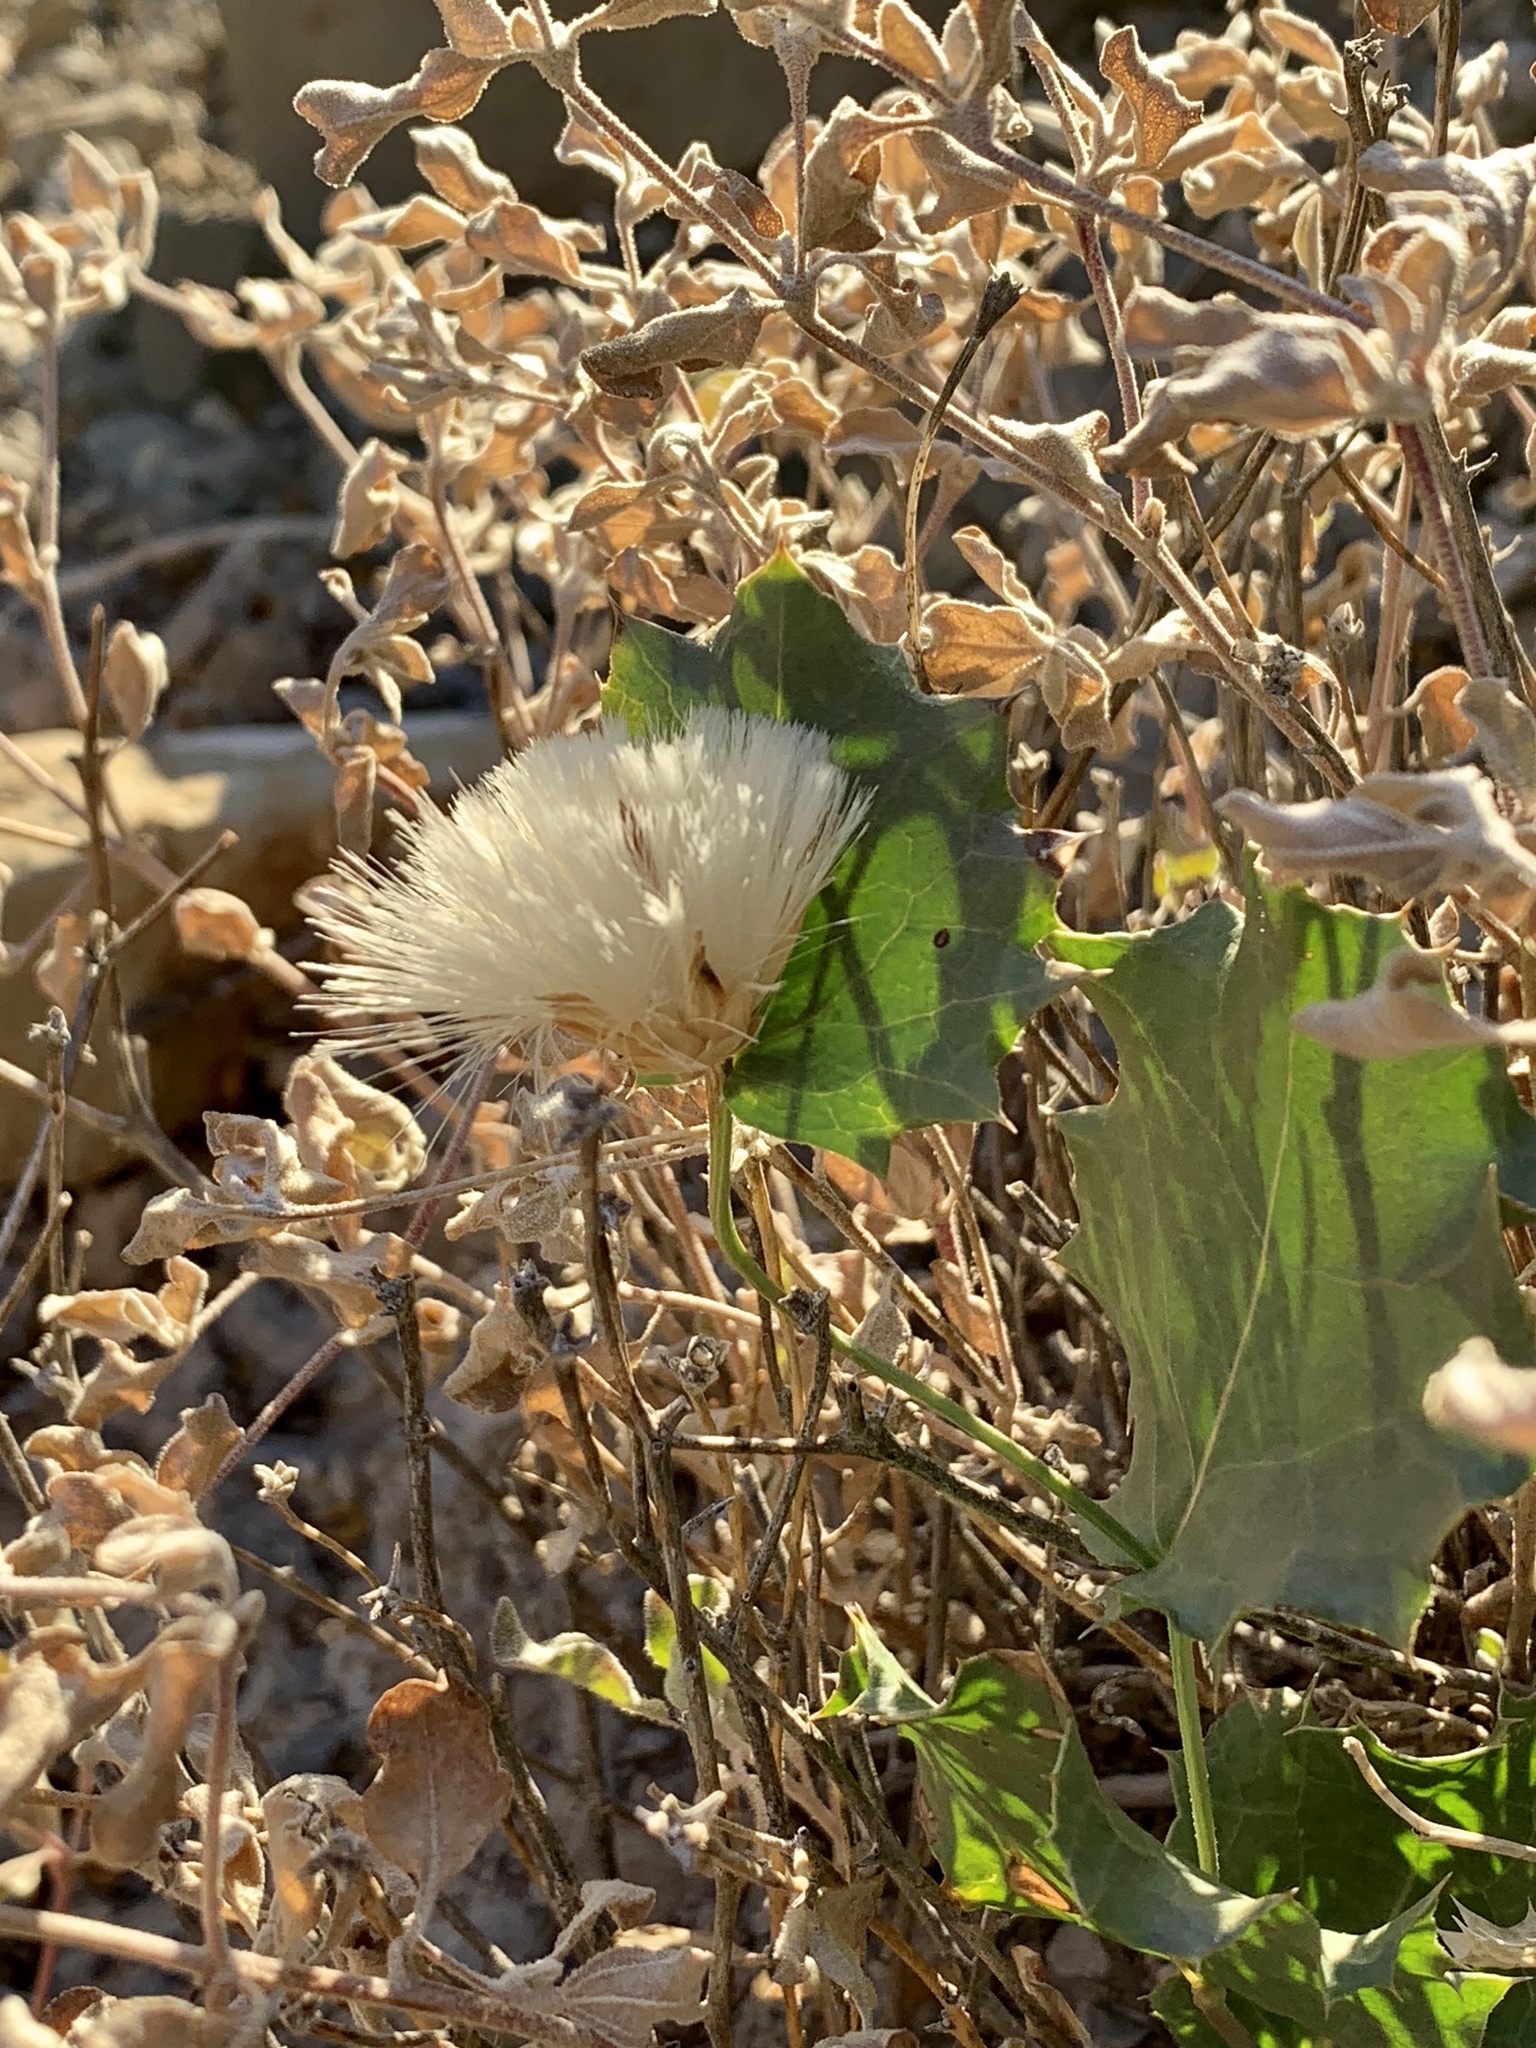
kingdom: Plantae
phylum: Tracheophyta
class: Magnoliopsida
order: Asterales
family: Asteraceae
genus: Acourtia
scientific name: Acourtia nana
